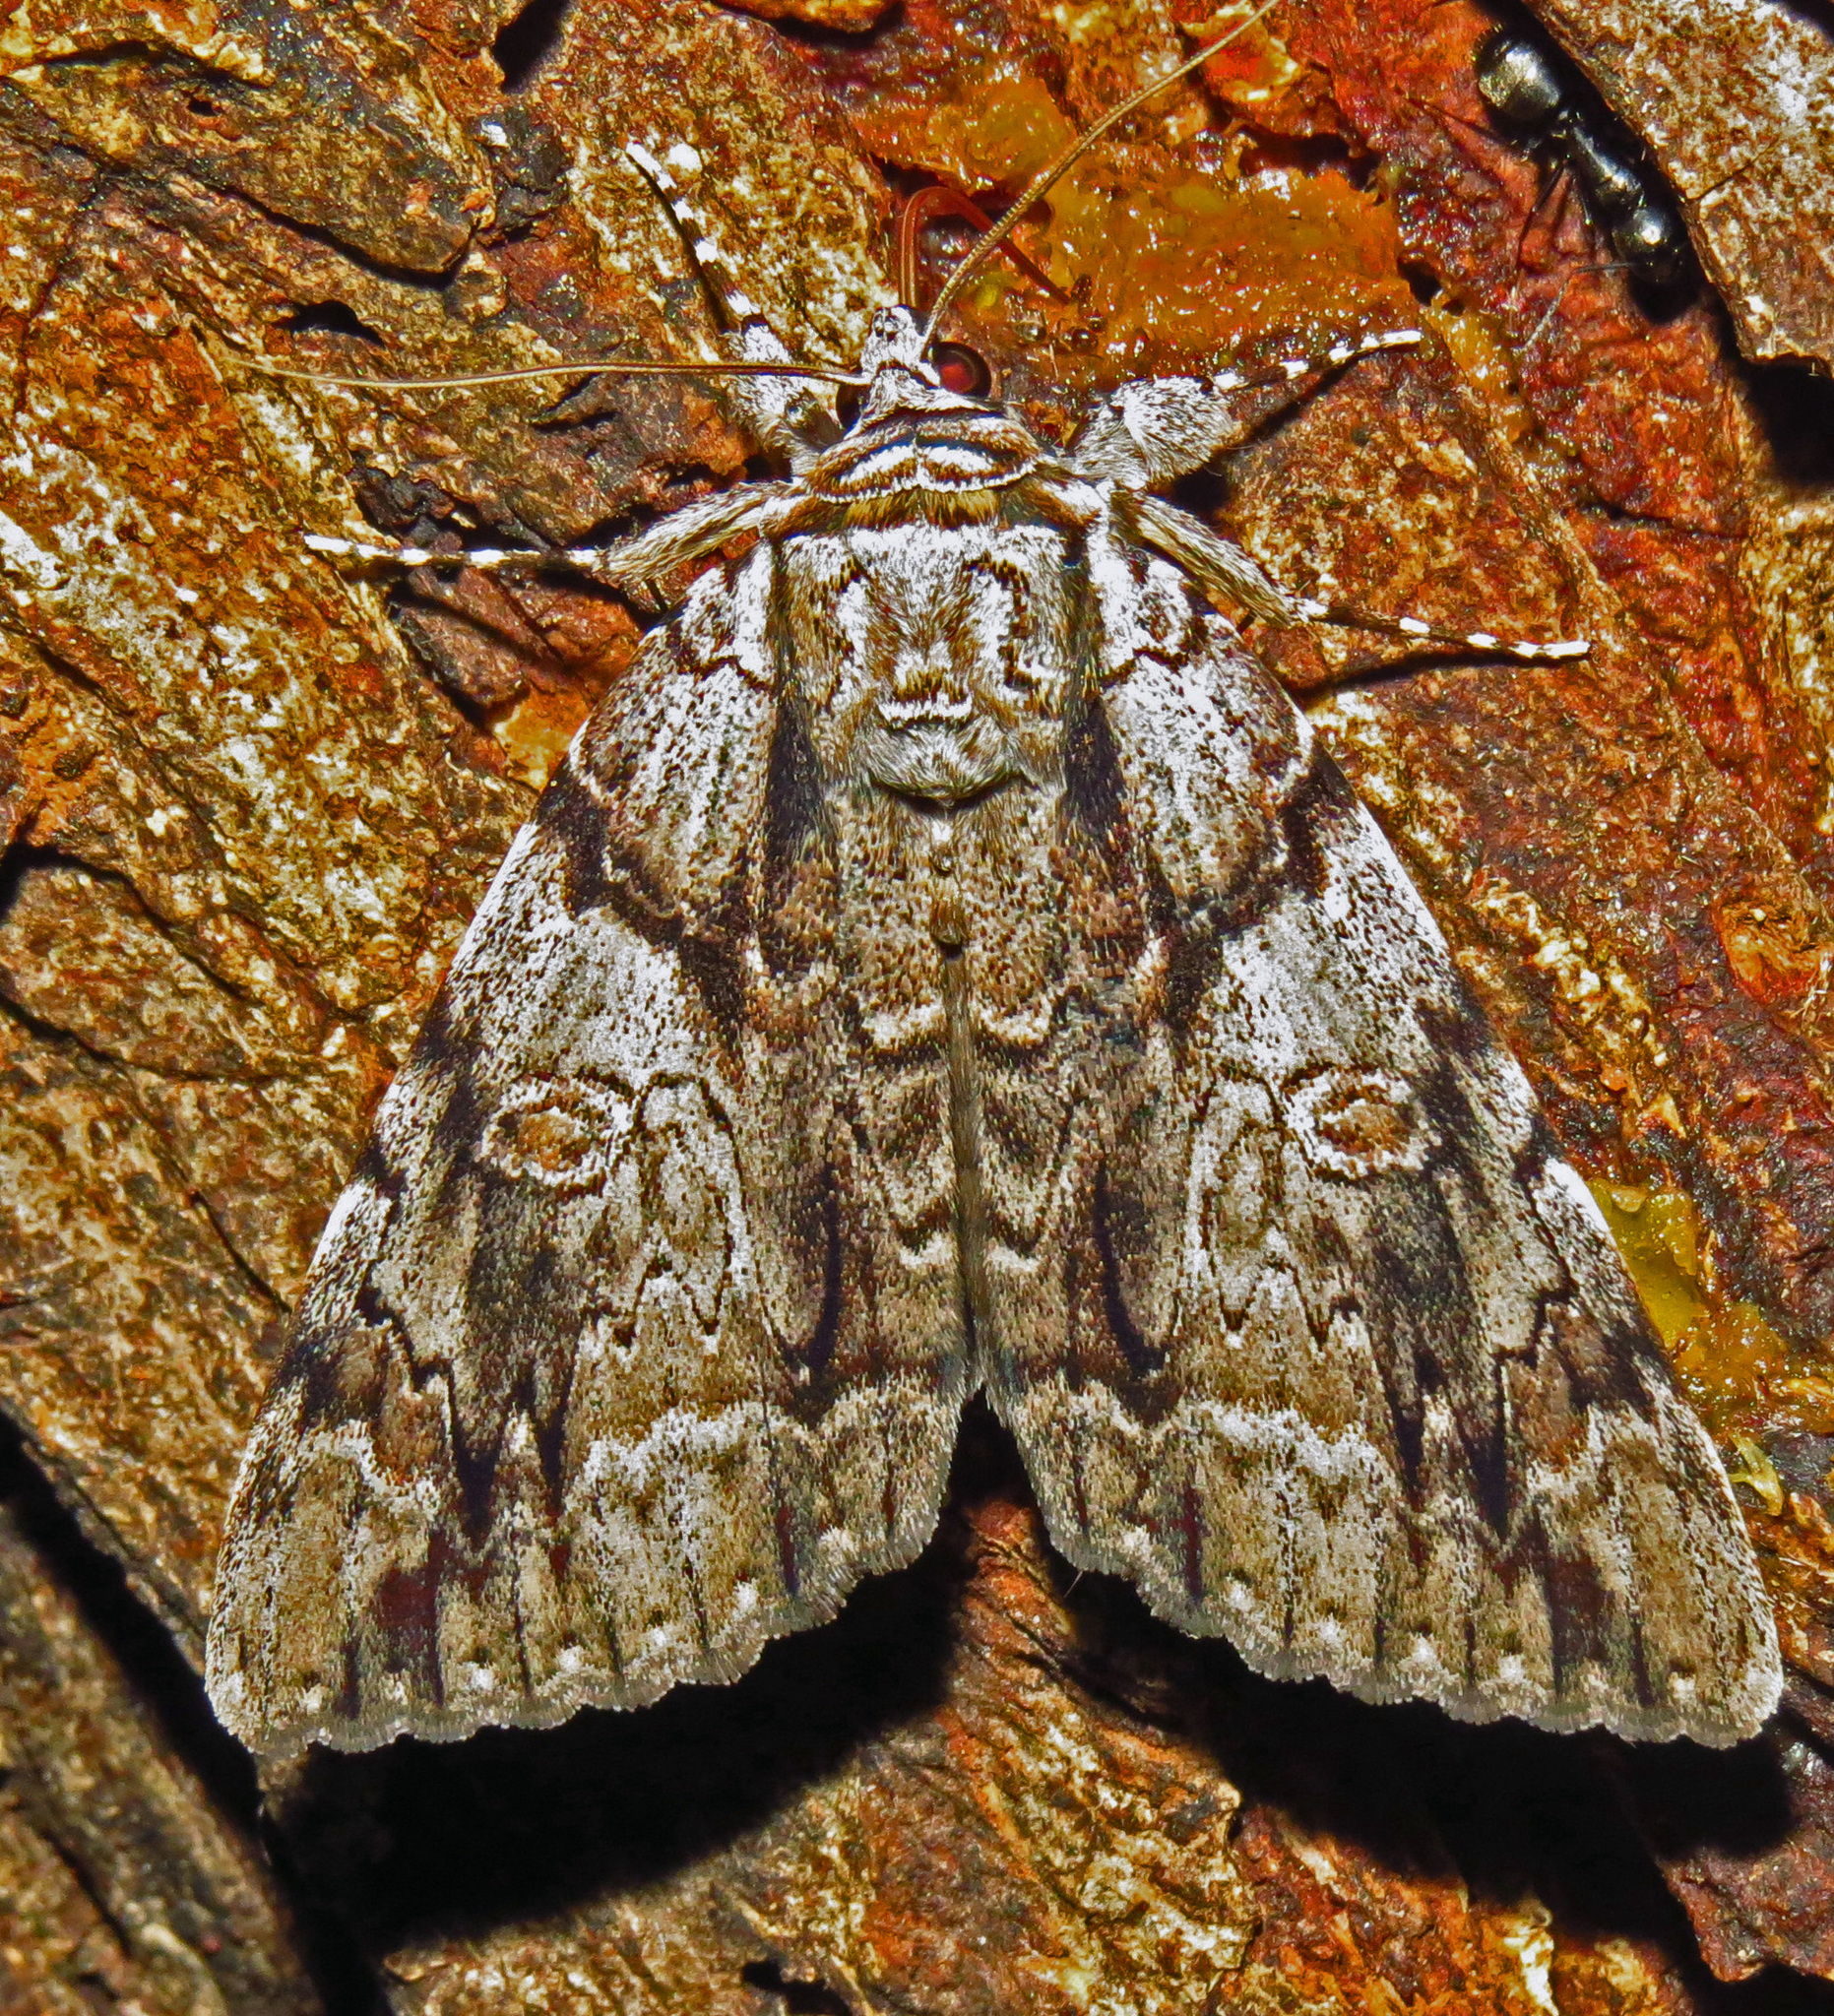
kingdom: Animalia
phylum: Arthropoda
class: Insecta
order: Lepidoptera
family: Erebidae
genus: Catocala
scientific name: Catocala vidua
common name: The widow
